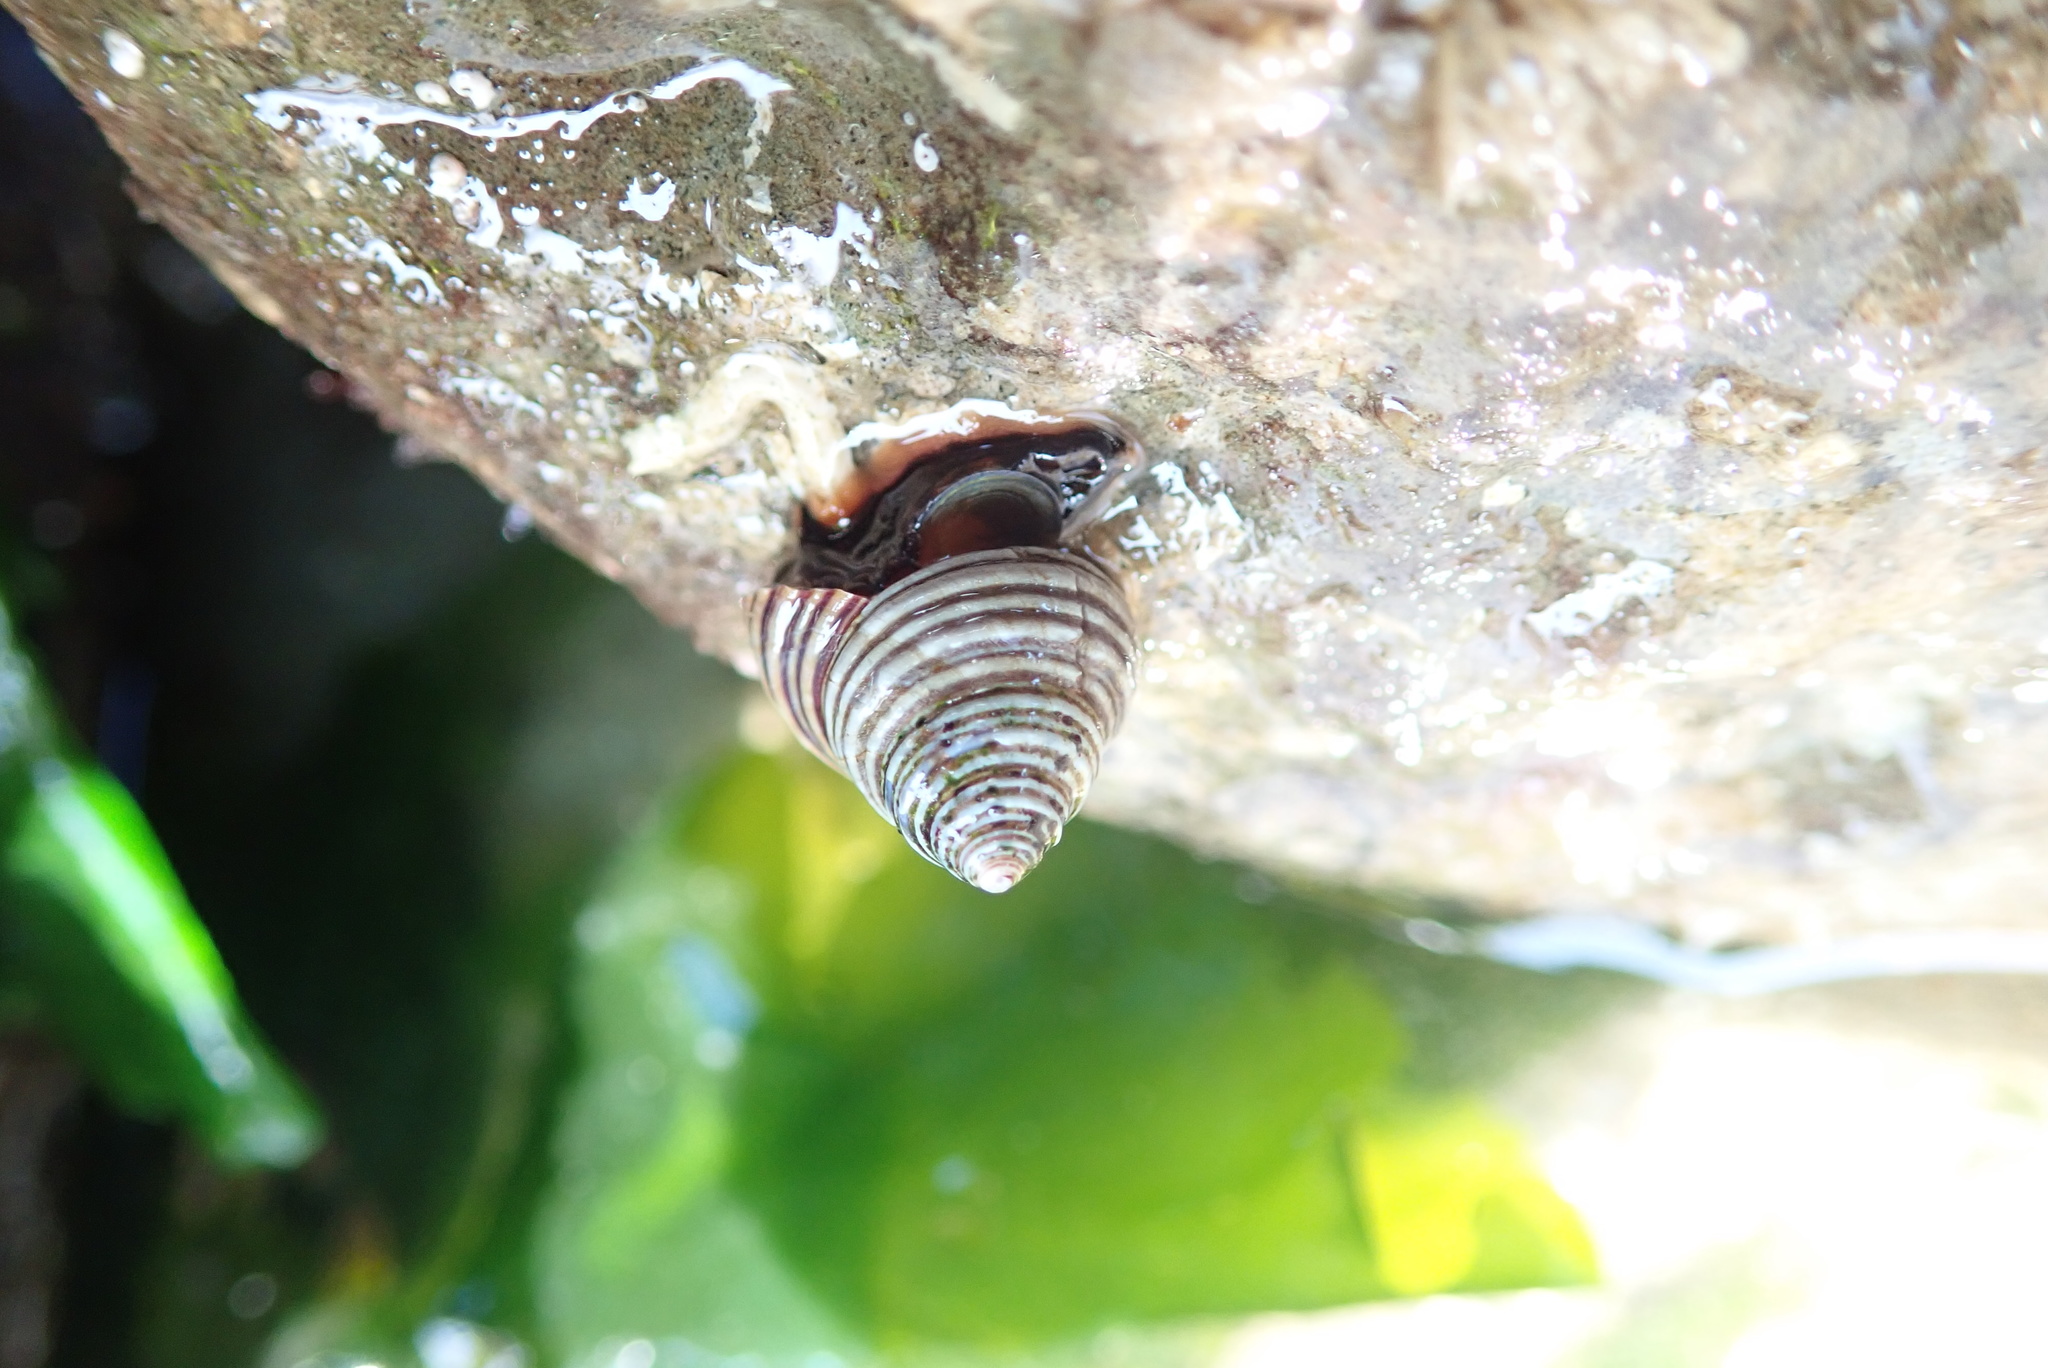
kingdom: Animalia
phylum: Mollusca
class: Gastropoda
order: Trochida
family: Calliostomatidae
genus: Calliostoma
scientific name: Calliostoma canaliculatum
